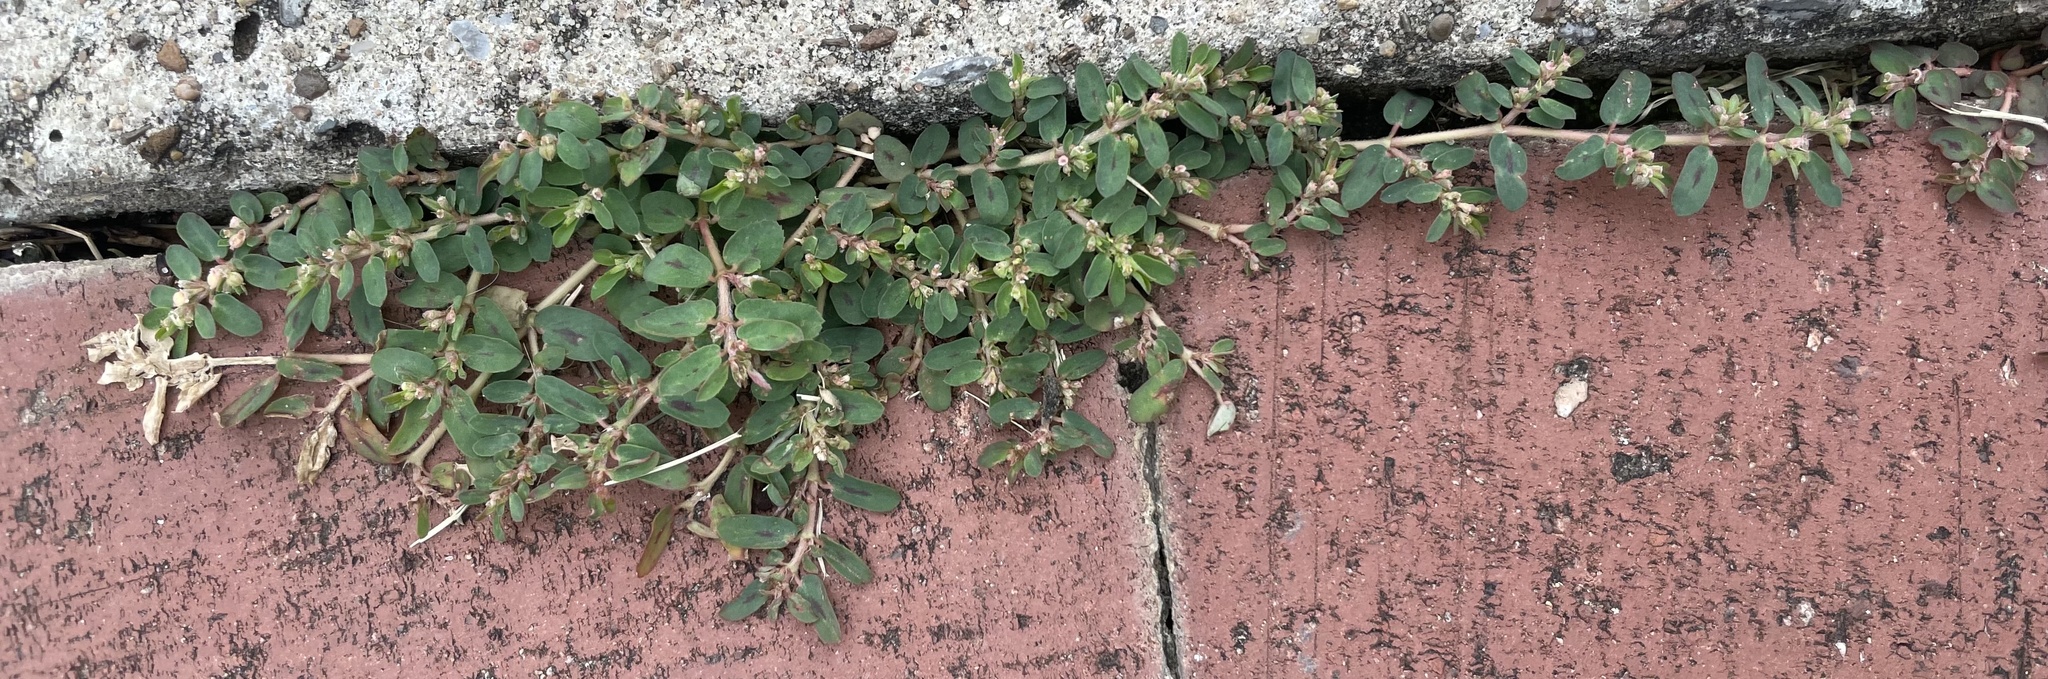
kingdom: Plantae
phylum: Tracheophyta
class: Magnoliopsida
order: Malpighiales
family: Euphorbiaceae
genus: Euphorbia
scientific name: Euphorbia maculata
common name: Spotted spurge
